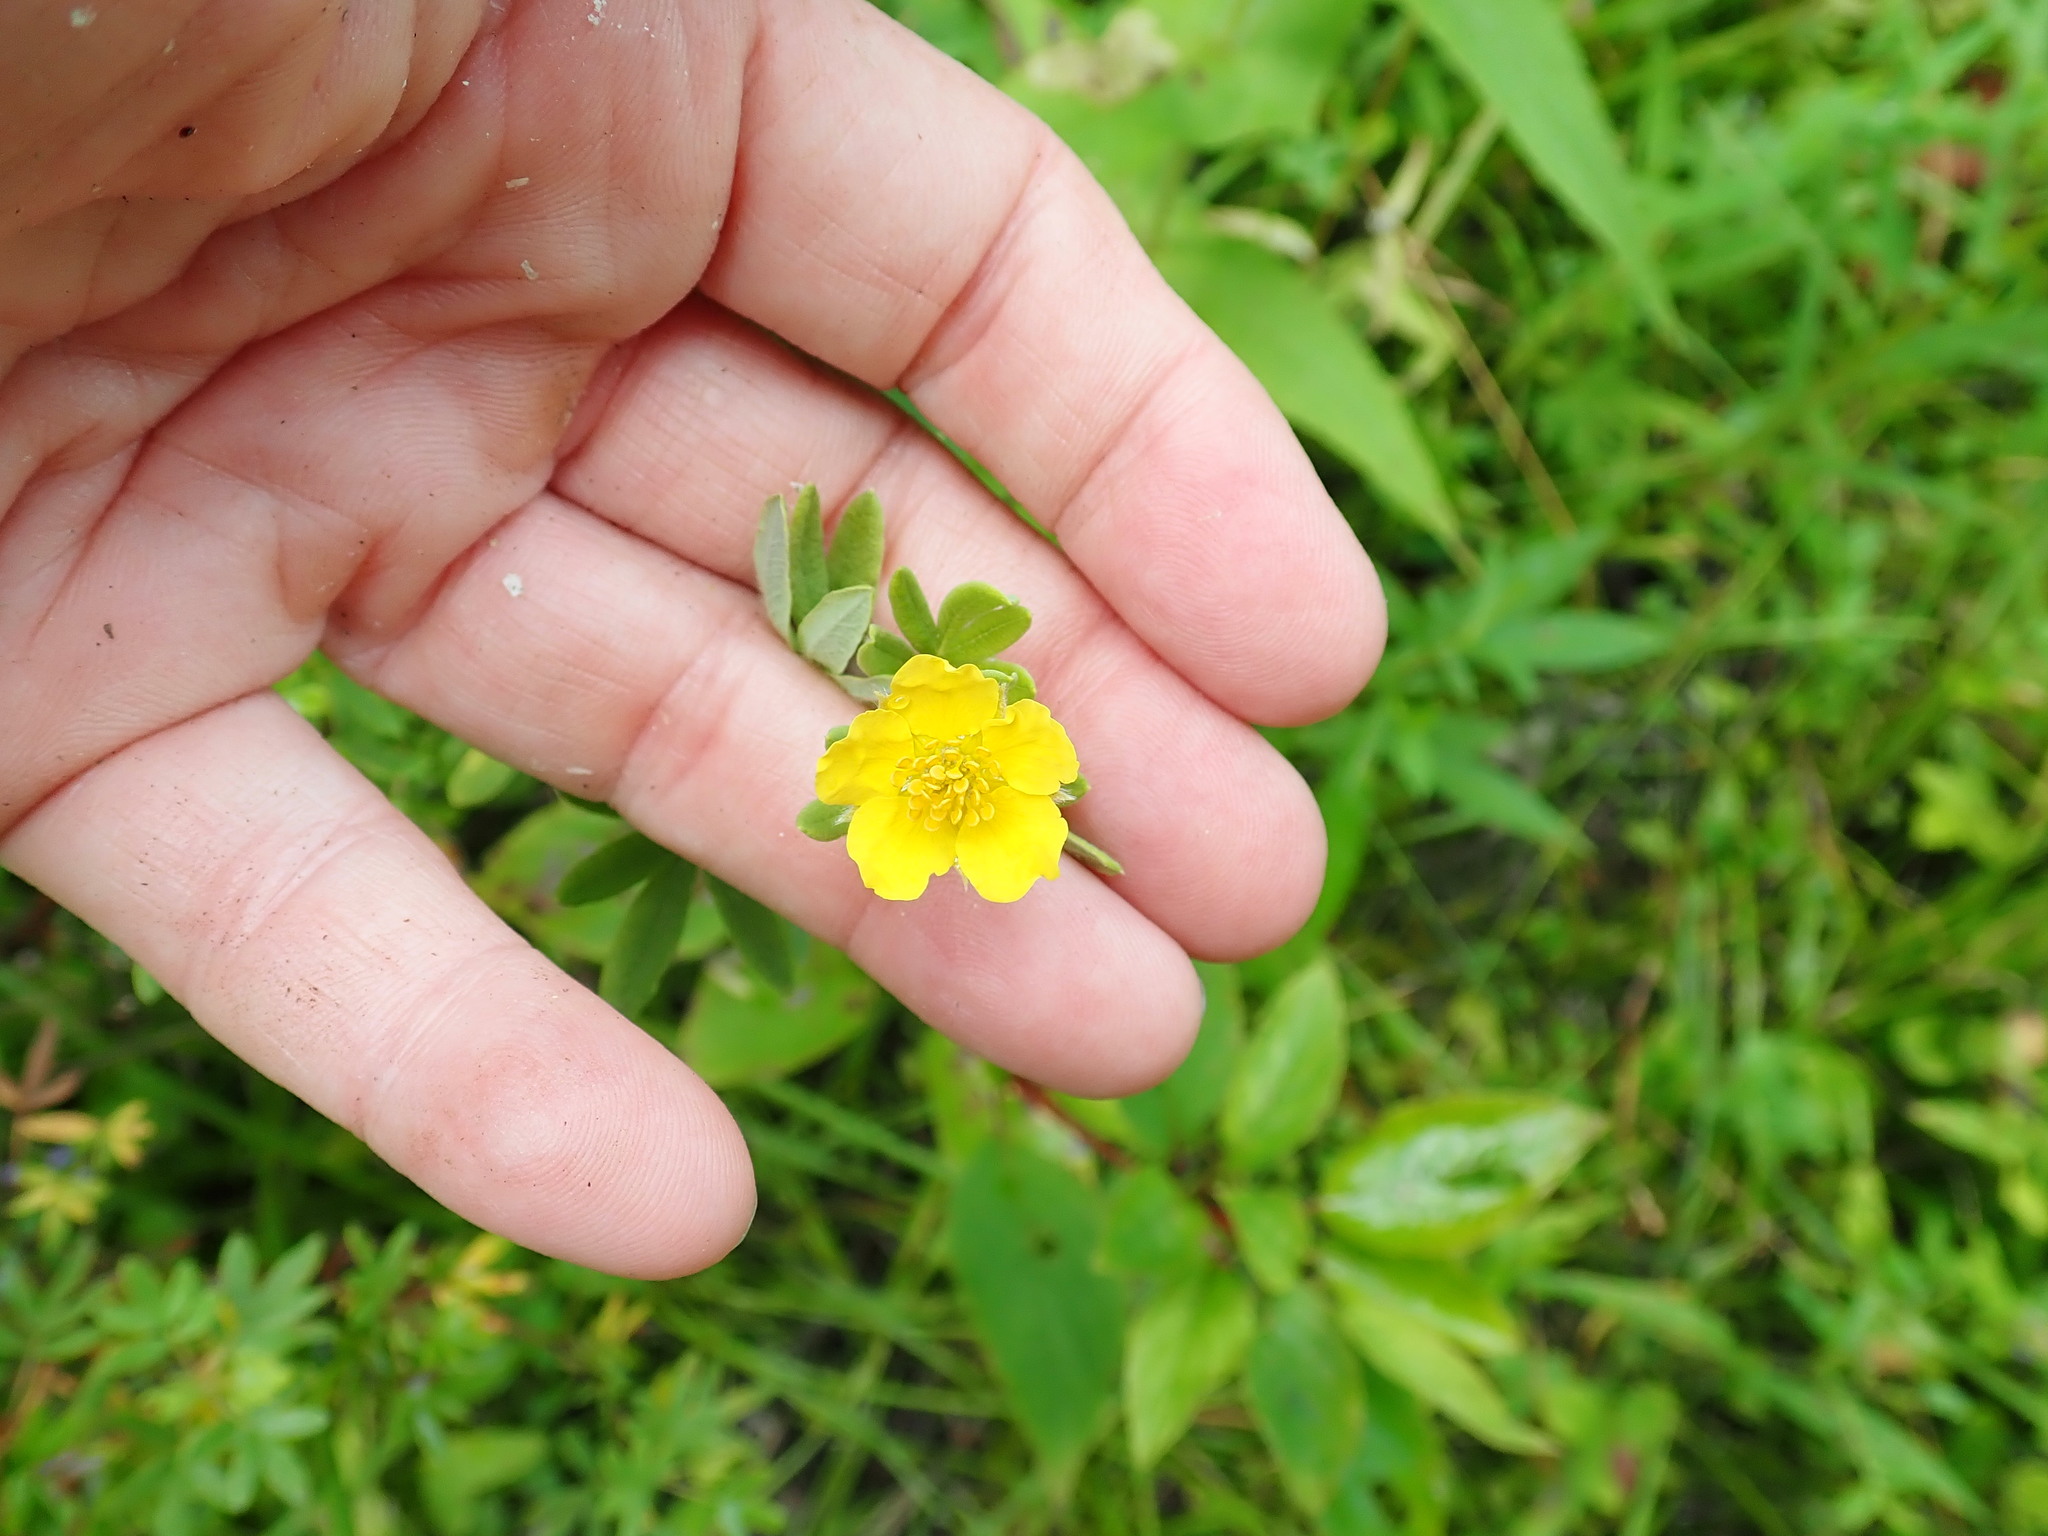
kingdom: Plantae
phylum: Tracheophyta
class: Magnoliopsida
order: Rosales
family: Rosaceae
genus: Dasiphora
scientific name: Dasiphora fruticosa
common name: Shrubby cinquefoil
